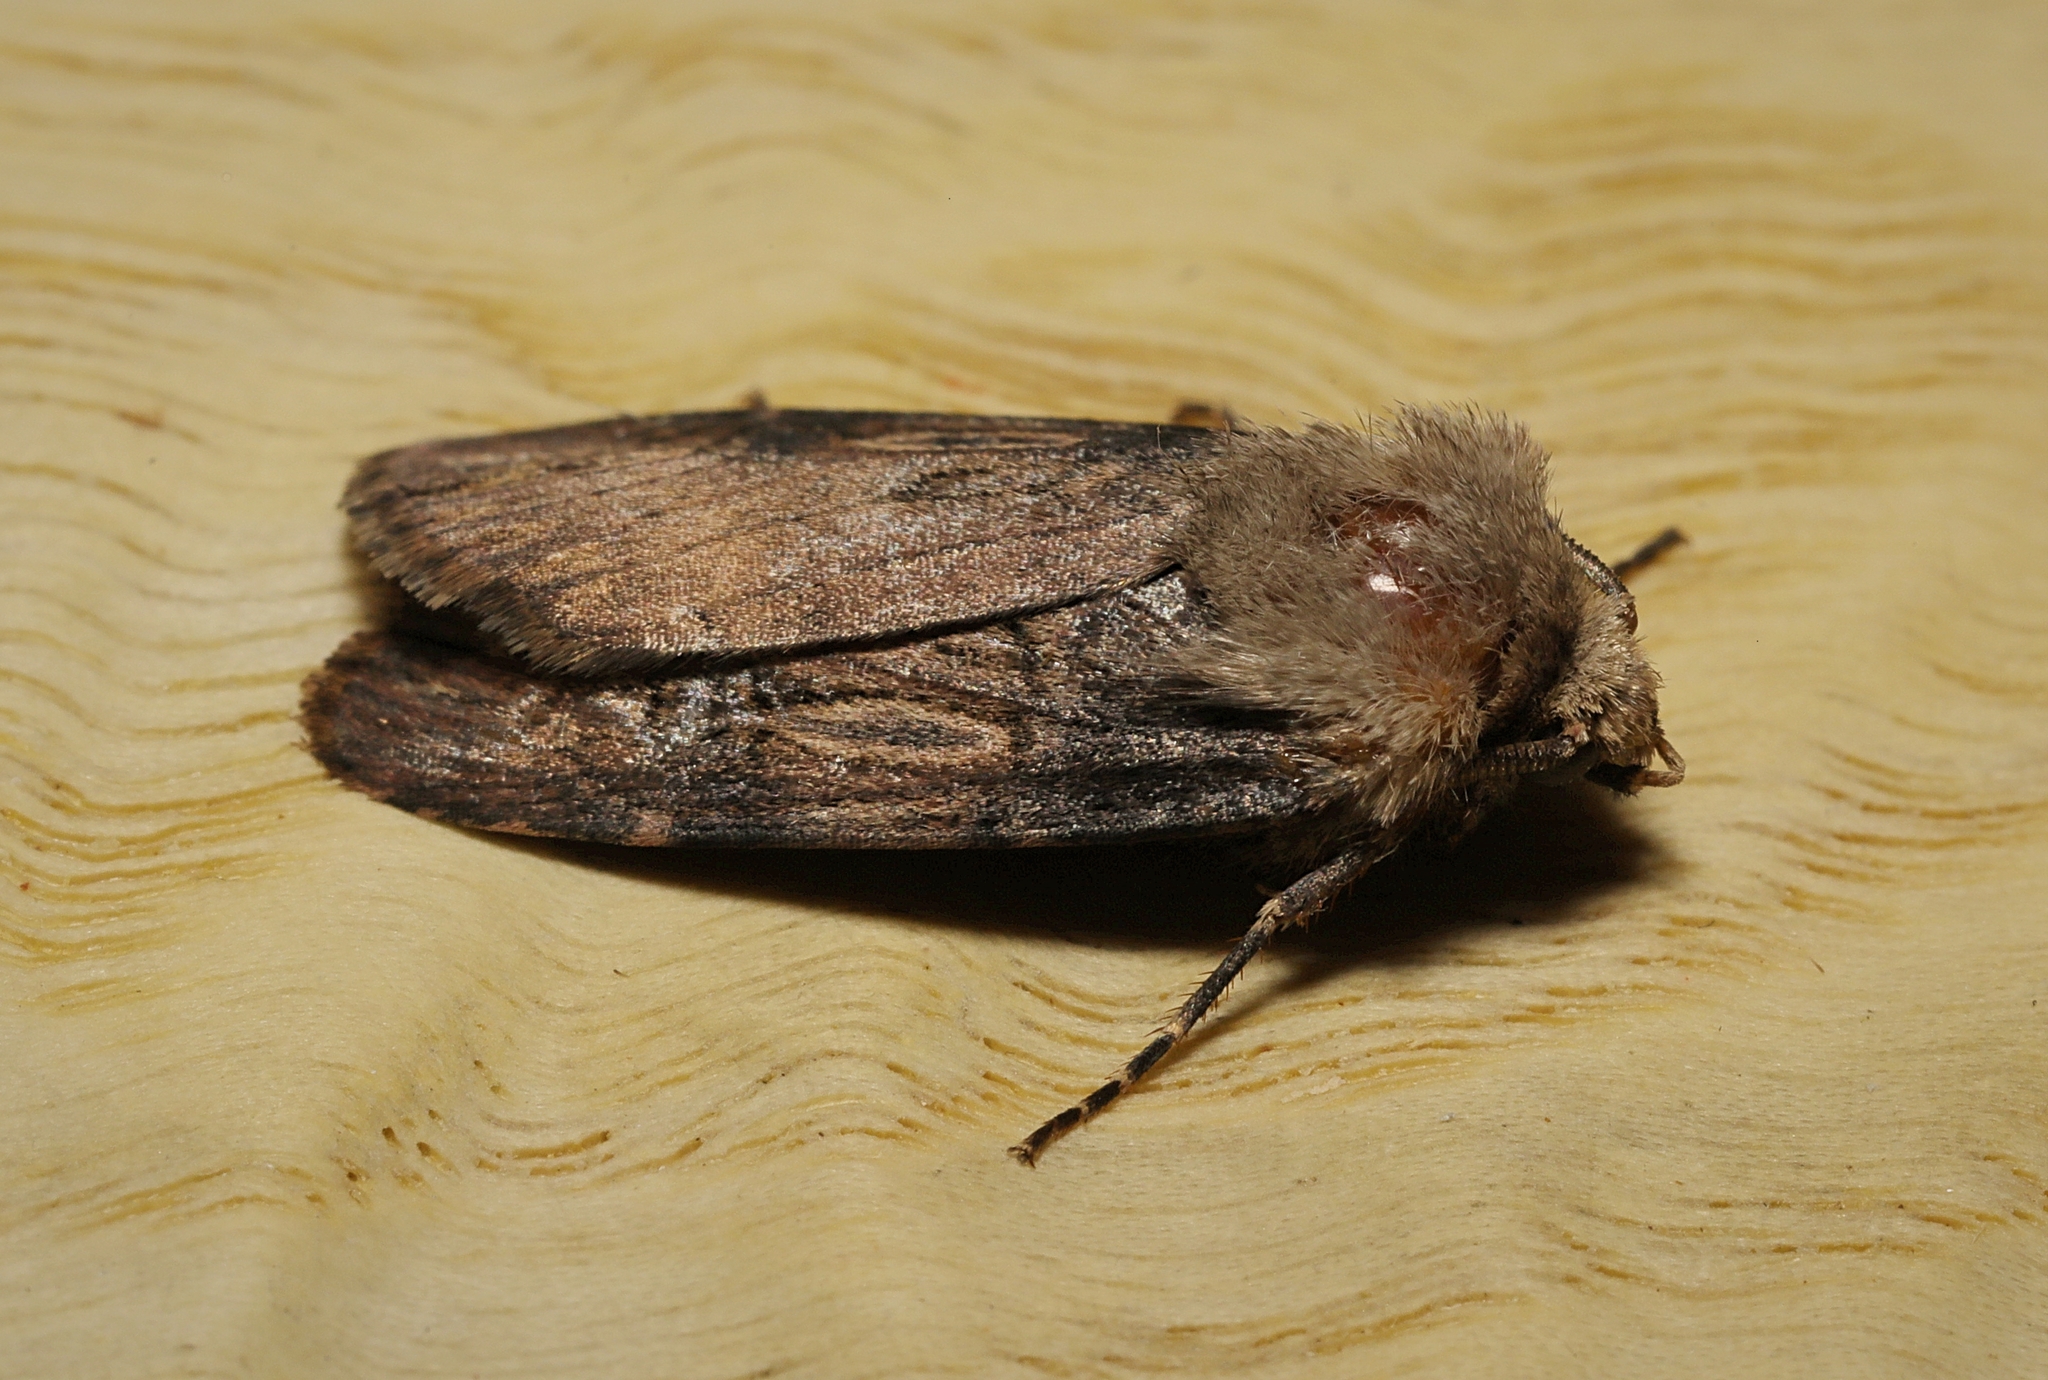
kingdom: Animalia
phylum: Arthropoda
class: Insecta
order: Lepidoptera
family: Noctuidae
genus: Agrotis
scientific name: Agrotis puta
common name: Shuttle-shaped dart
